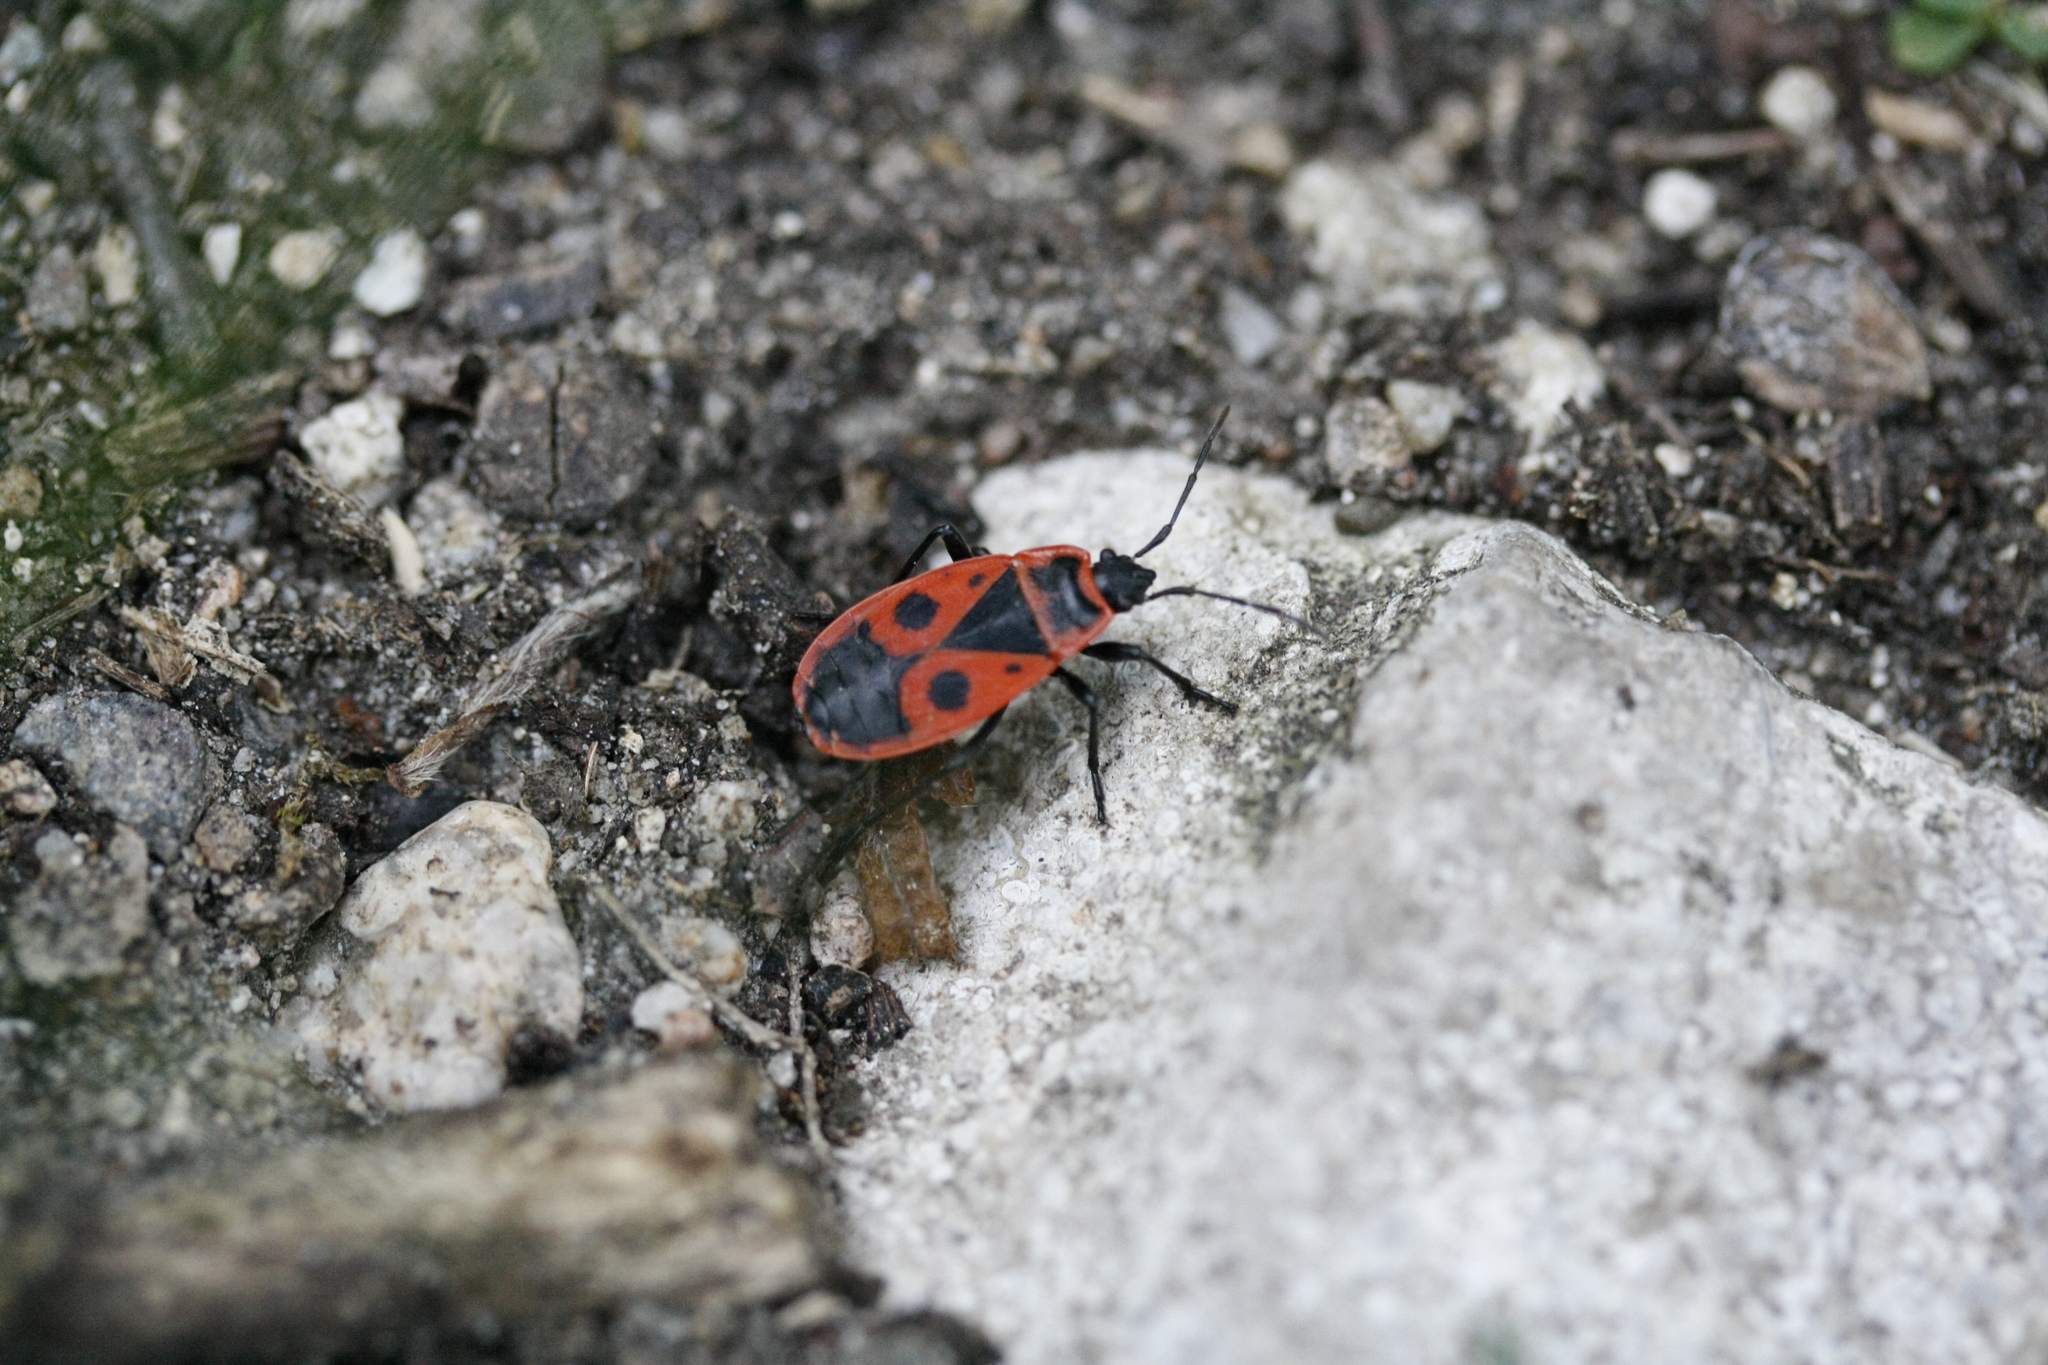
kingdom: Animalia
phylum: Arthropoda
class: Insecta
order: Hemiptera
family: Pyrrhocoridae
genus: Pyrrhocoris
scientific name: Pyrrhocoris apterus
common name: Firebug
